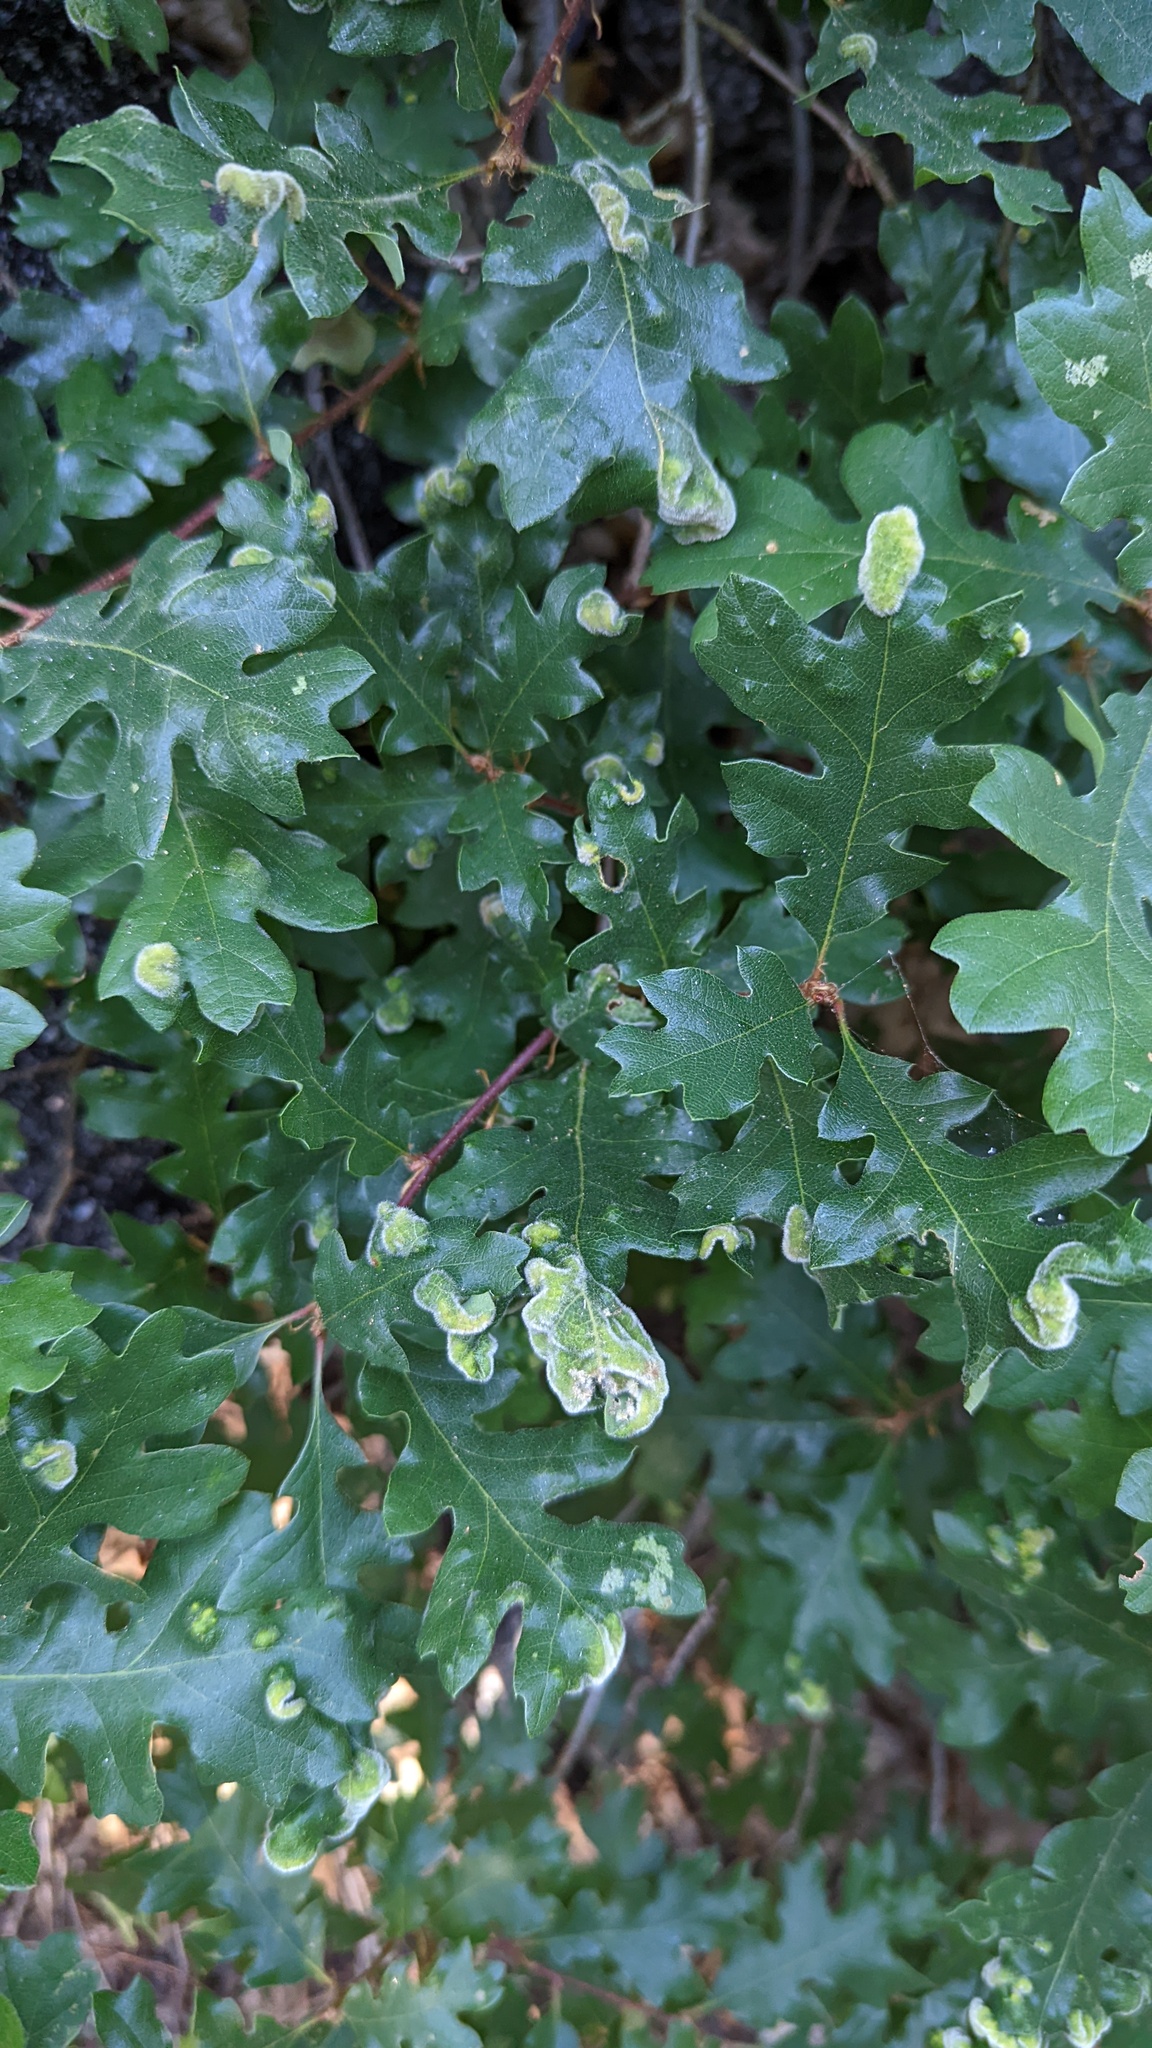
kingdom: Animalia
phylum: Arthropoda
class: Arachnida
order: Trombidiformes
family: Eriophyidae
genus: Aceria
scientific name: Aceria
